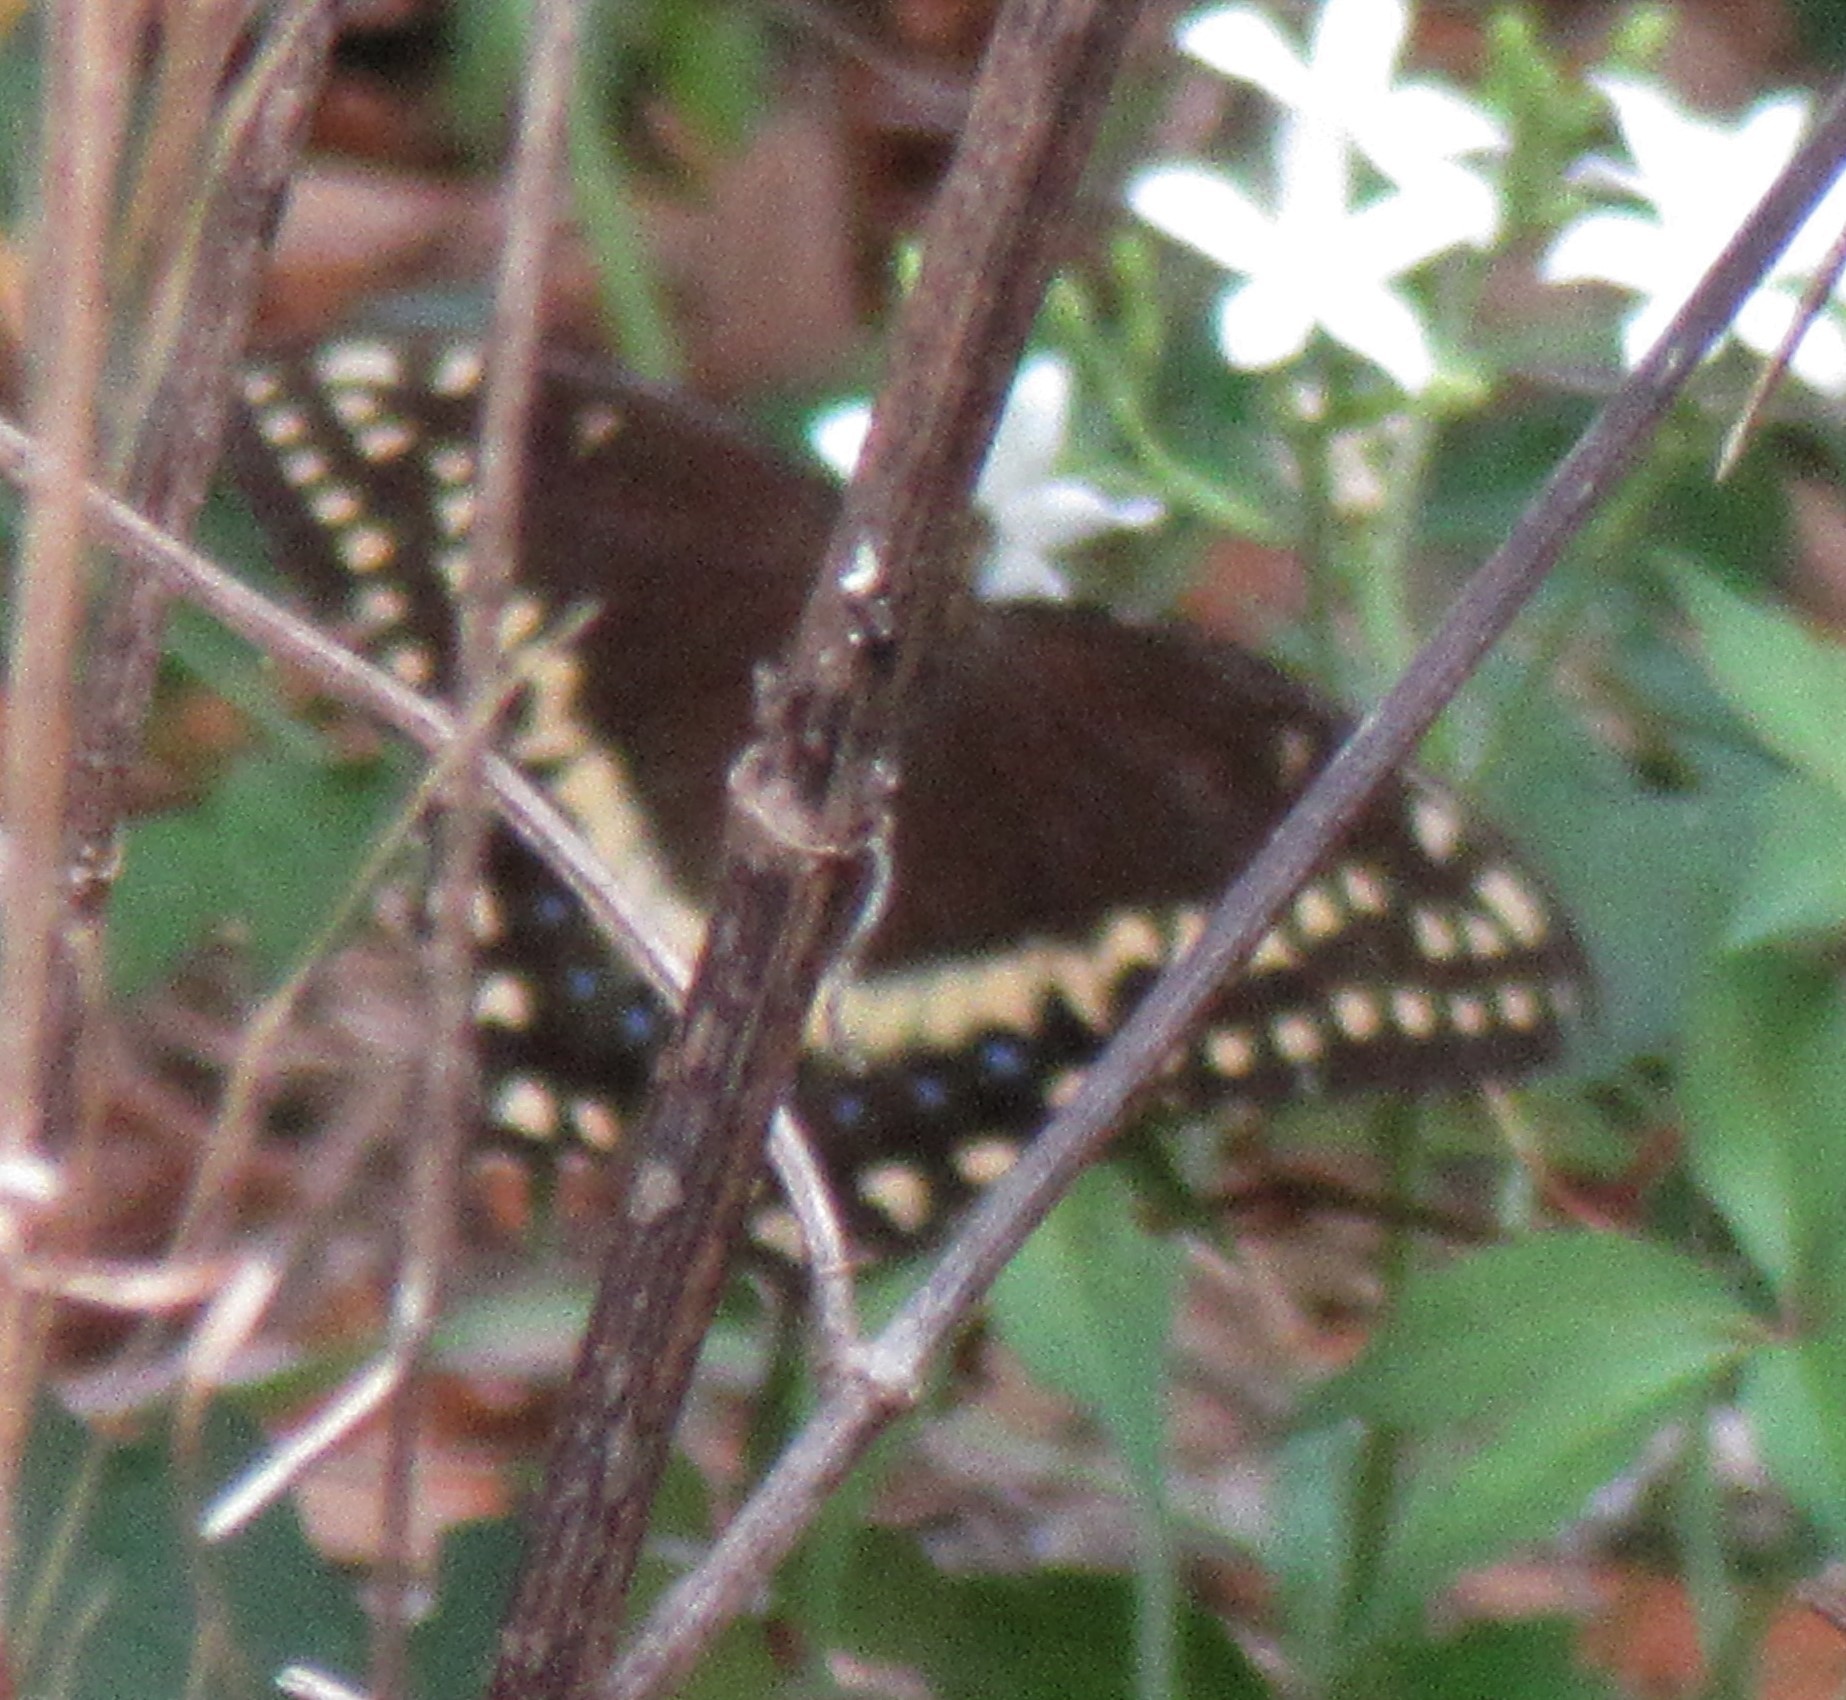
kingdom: Animalia
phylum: Arthropoda
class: Insecta
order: Lepidoptera
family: Papilionidae
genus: Papilio
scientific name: Papilio palamedes
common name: Palamedes swallowtail
